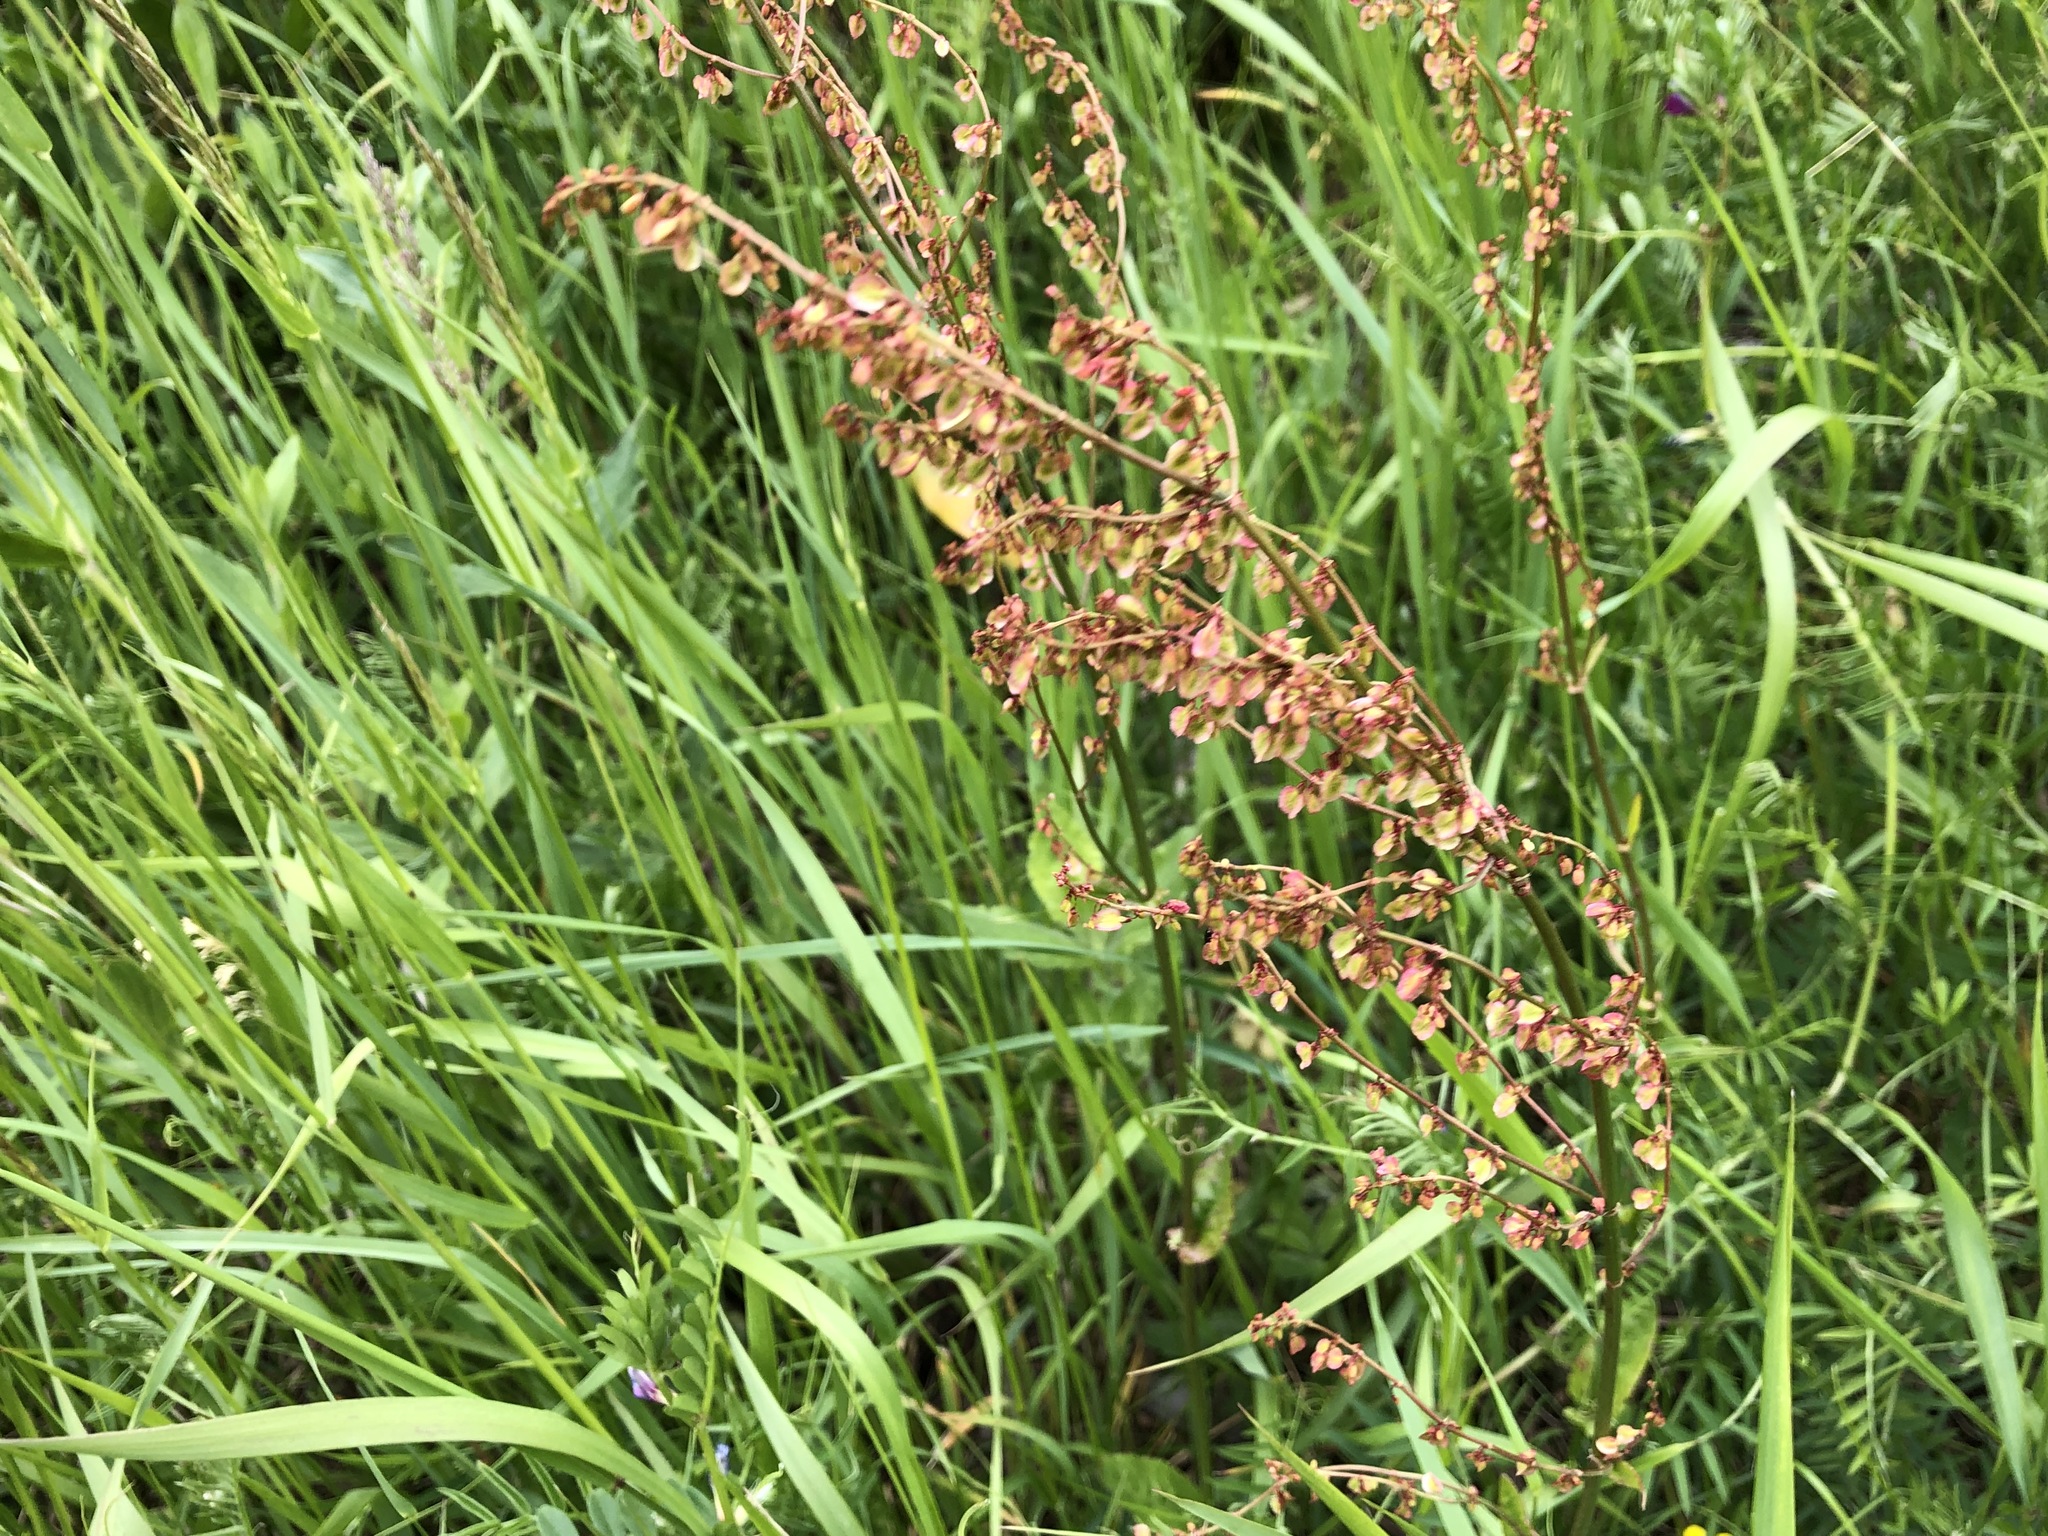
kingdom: Plantae
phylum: Tracheophyta
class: Magnoliopsida
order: Caryophyllales
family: Polygonaceae
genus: Rumex
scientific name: Rumex acetosa
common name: Garden sorrel
